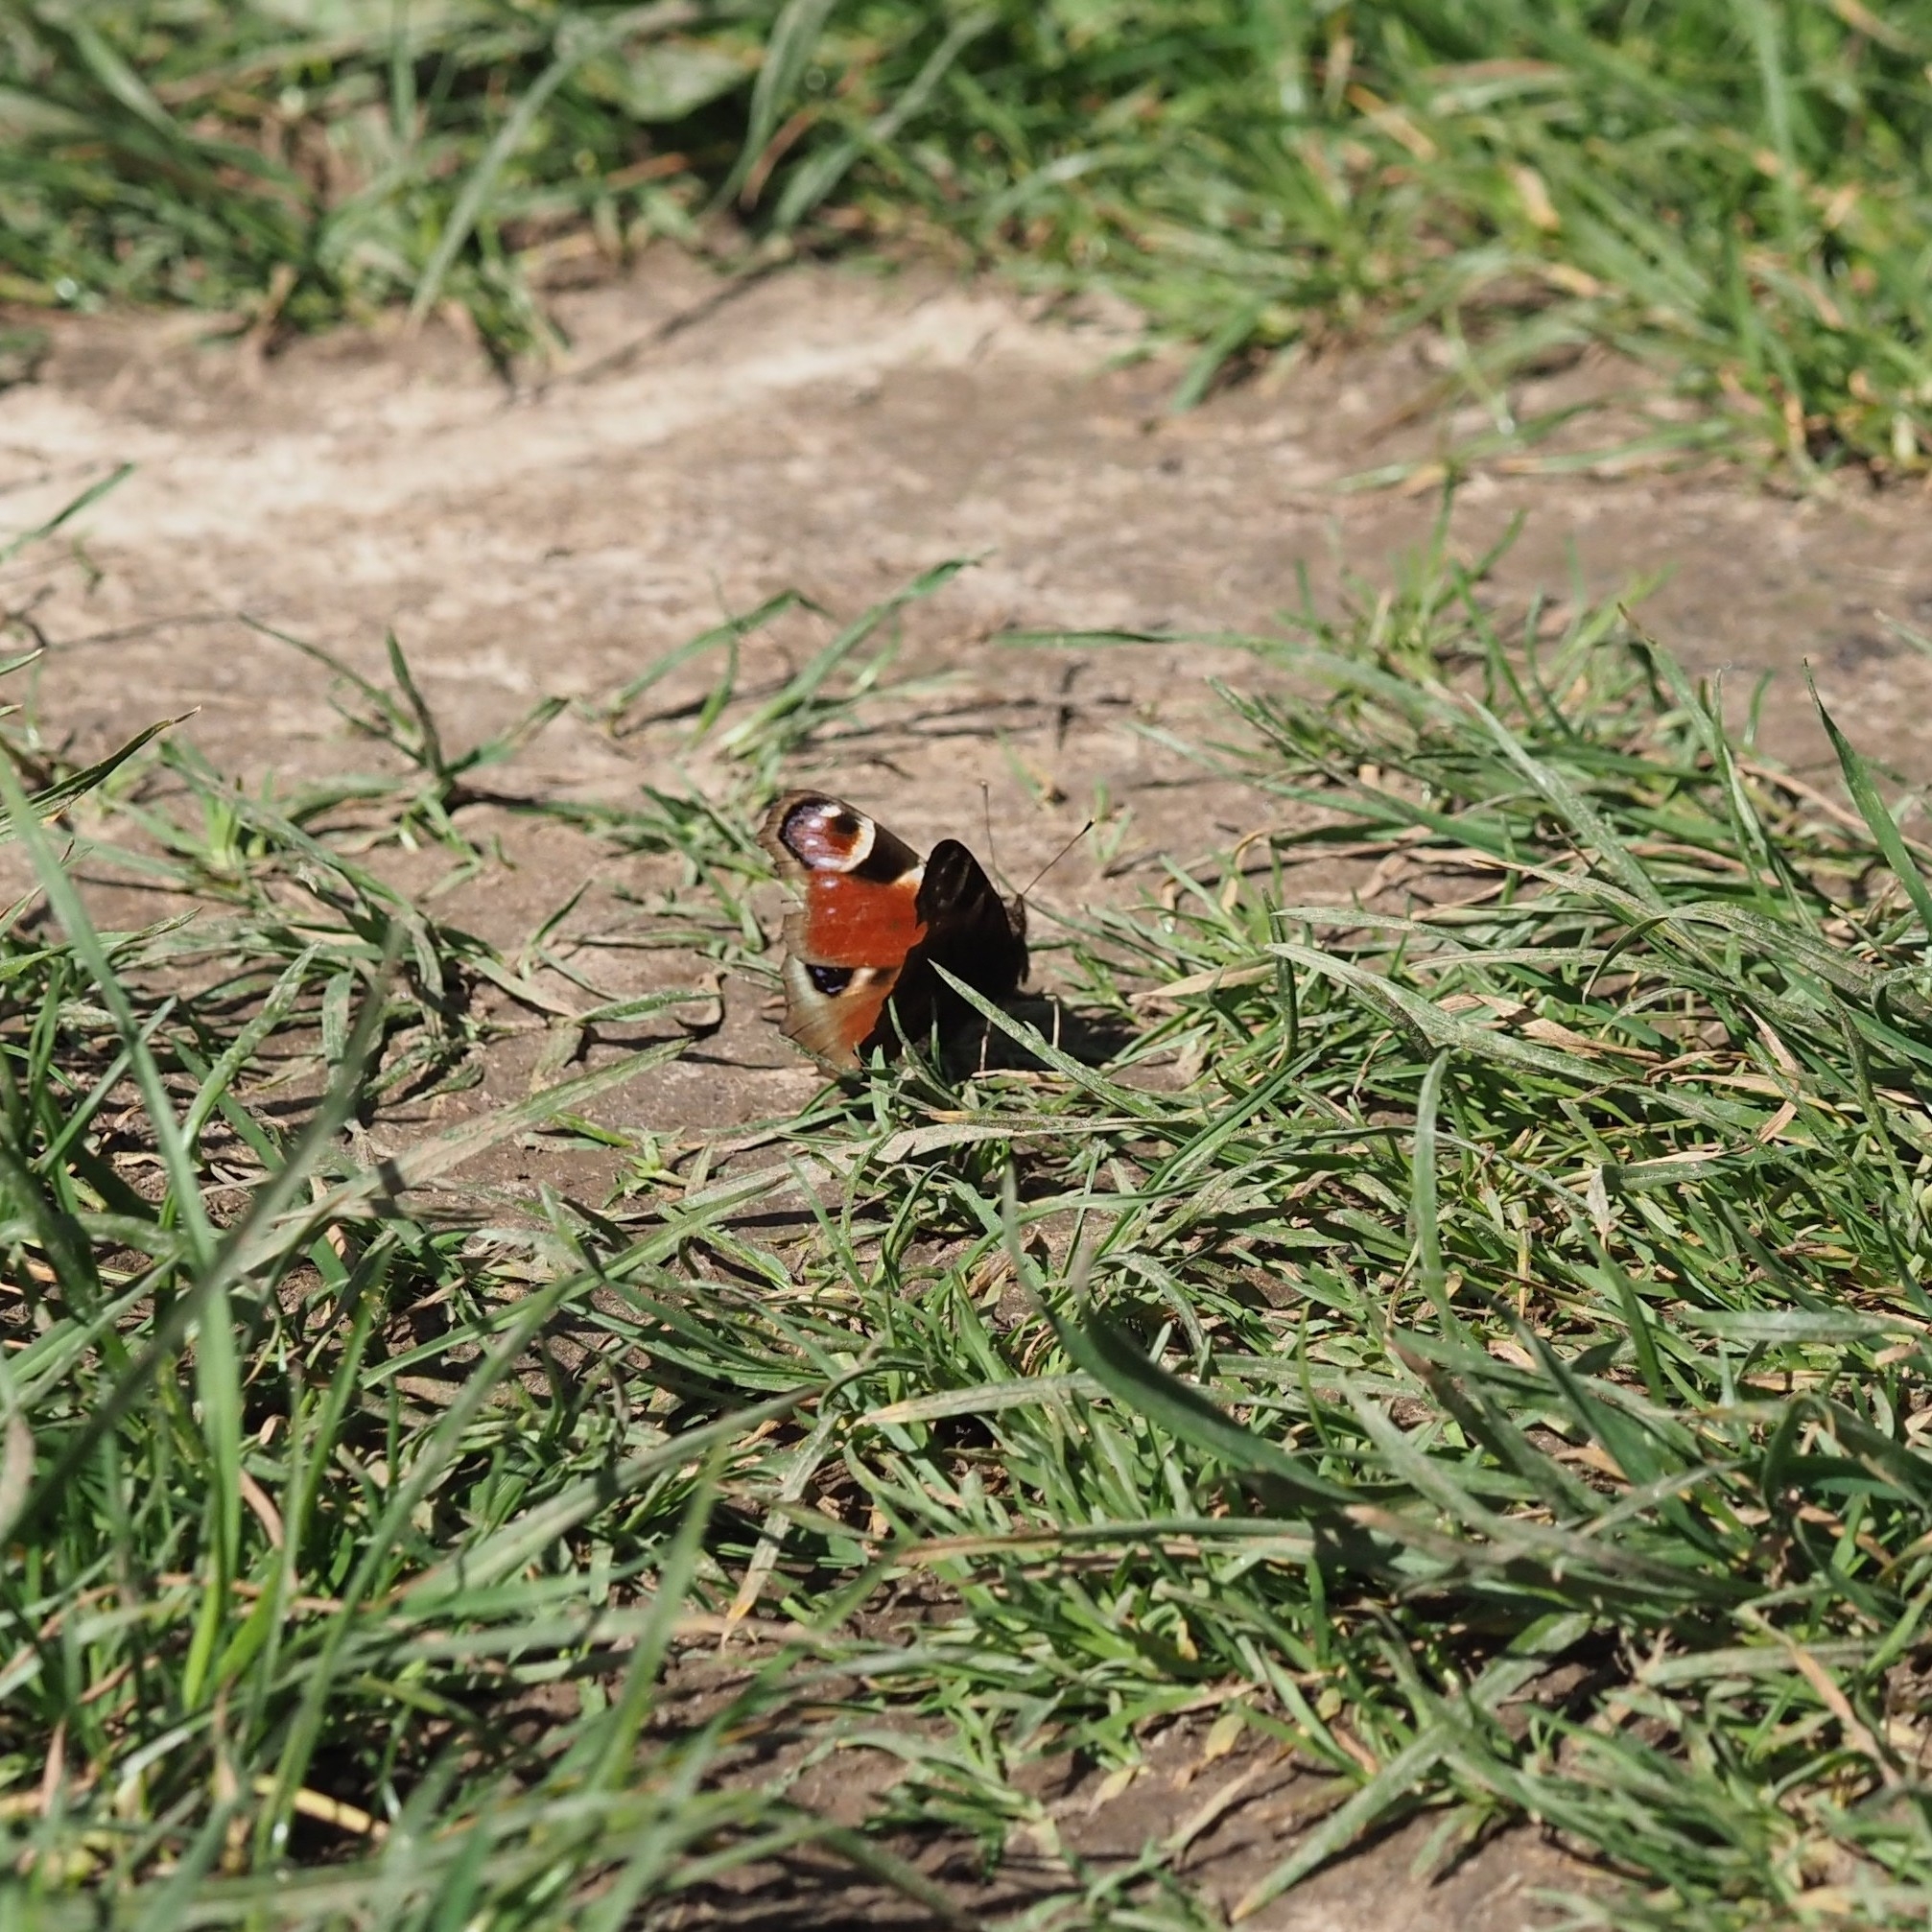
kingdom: Animalia
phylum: Arthropoda
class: Insecta
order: Lepidoptera
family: Nymphalidae
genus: Aglais
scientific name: Aglais io
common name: Peacock
